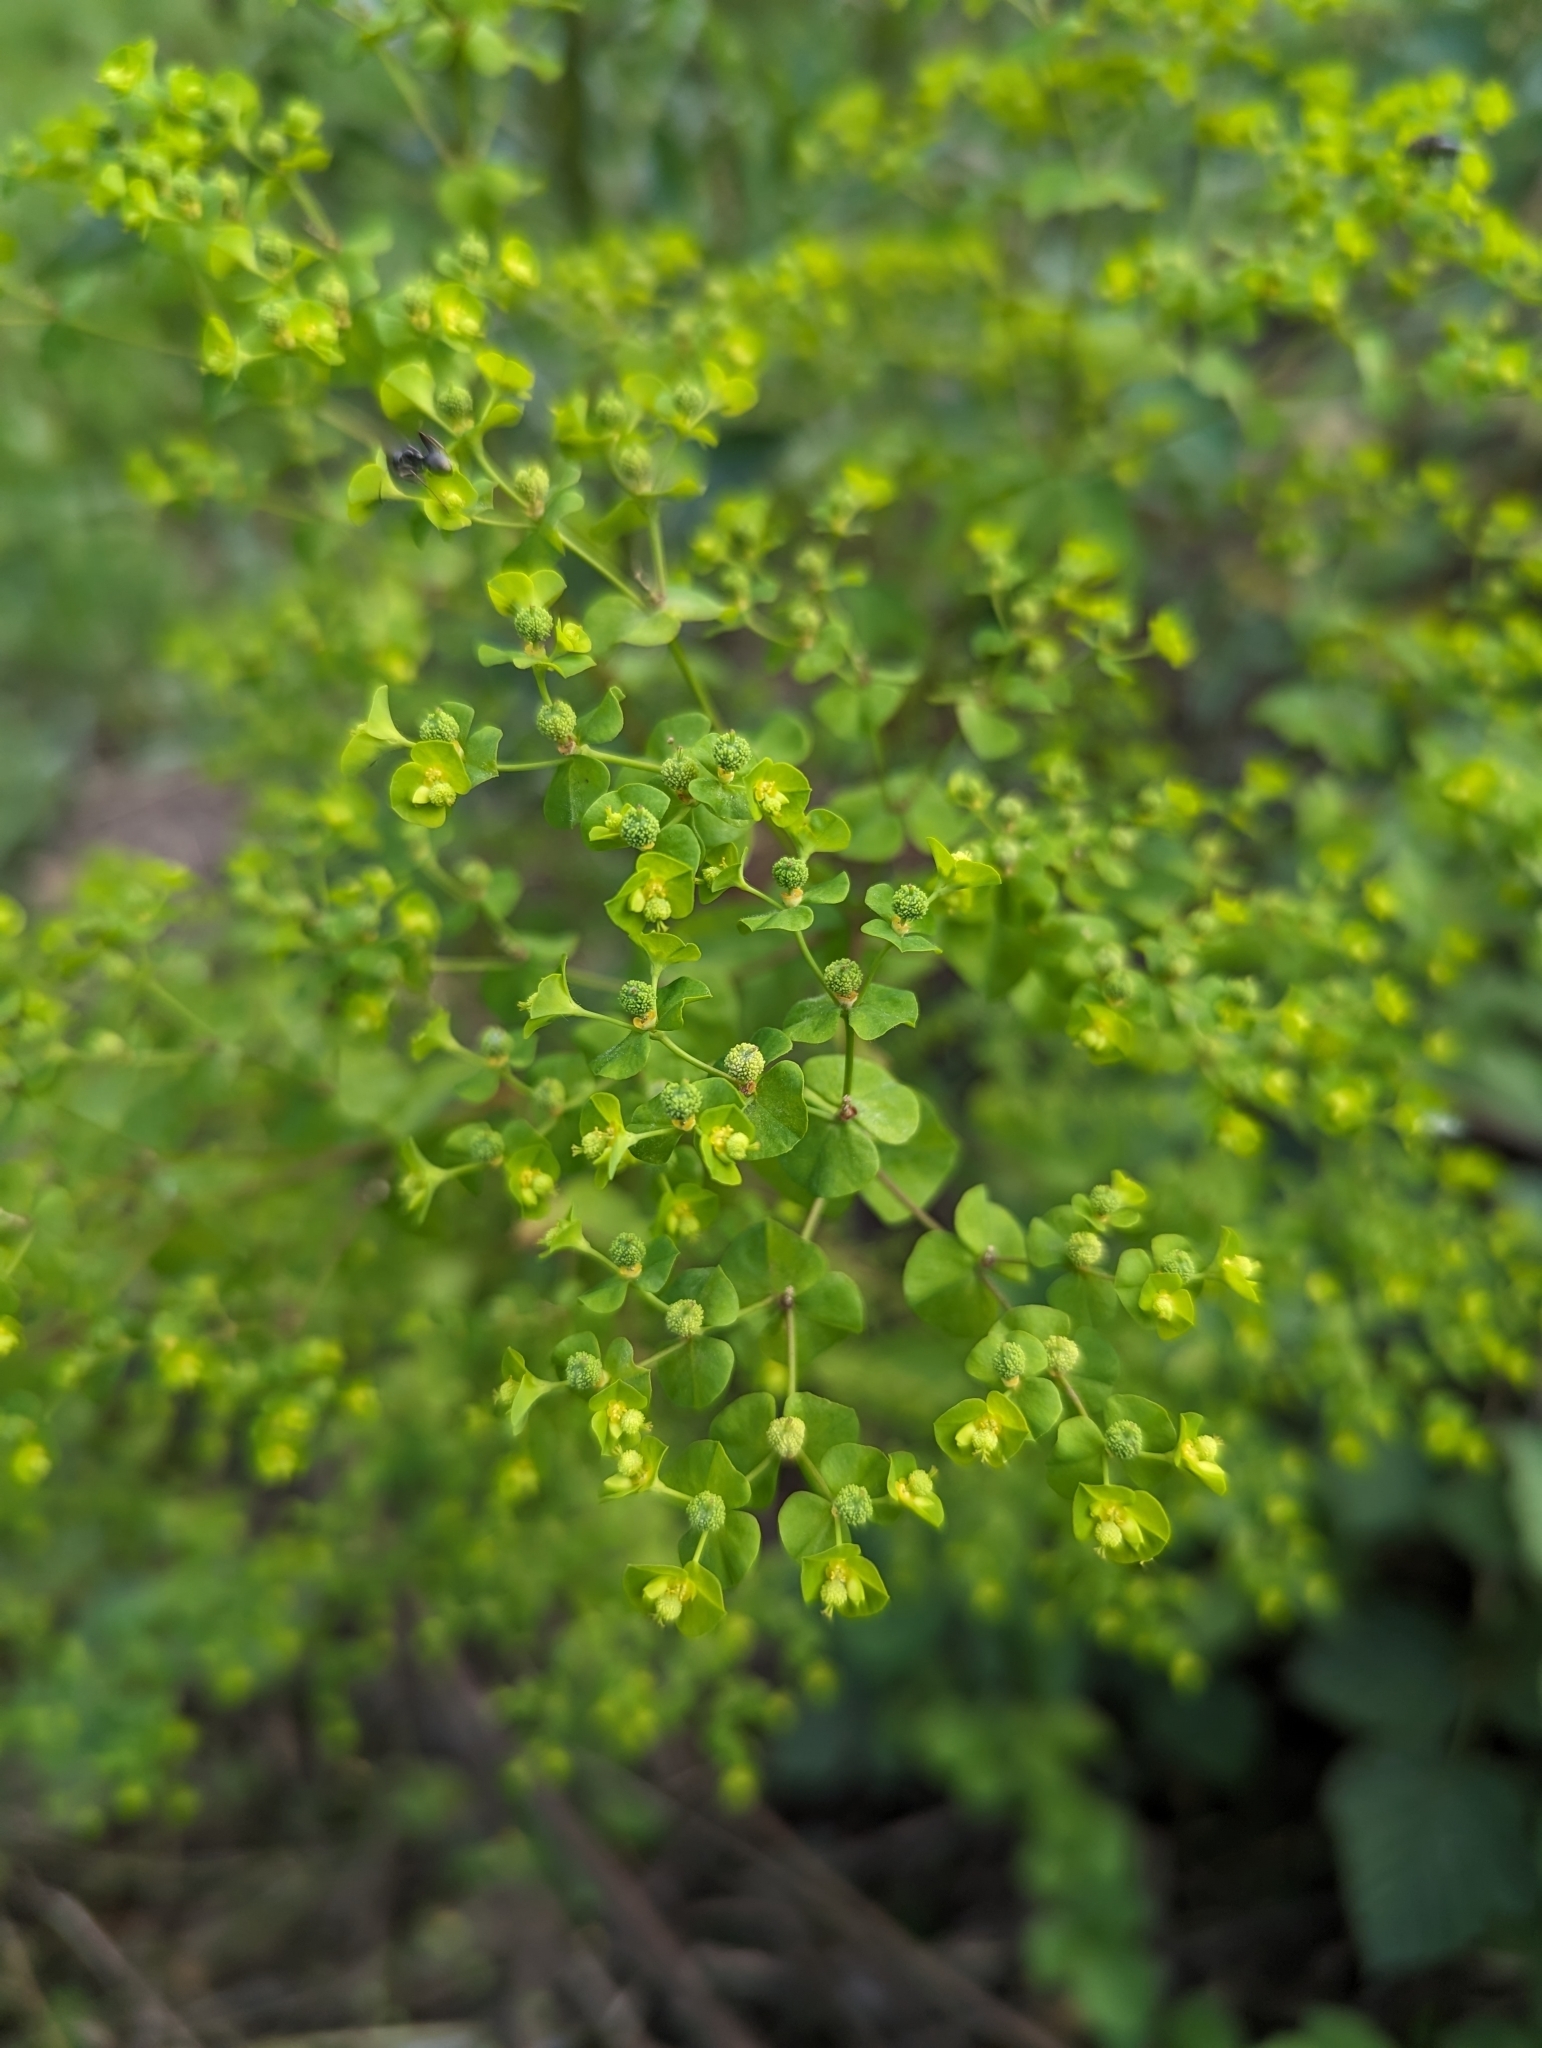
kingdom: Plantae
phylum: Tracheophyta
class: Magnoliopsida
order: Malpighiales
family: Euphorbiaceae
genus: Euphorbia
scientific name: Euphorbia stricta
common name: Upright spurge
